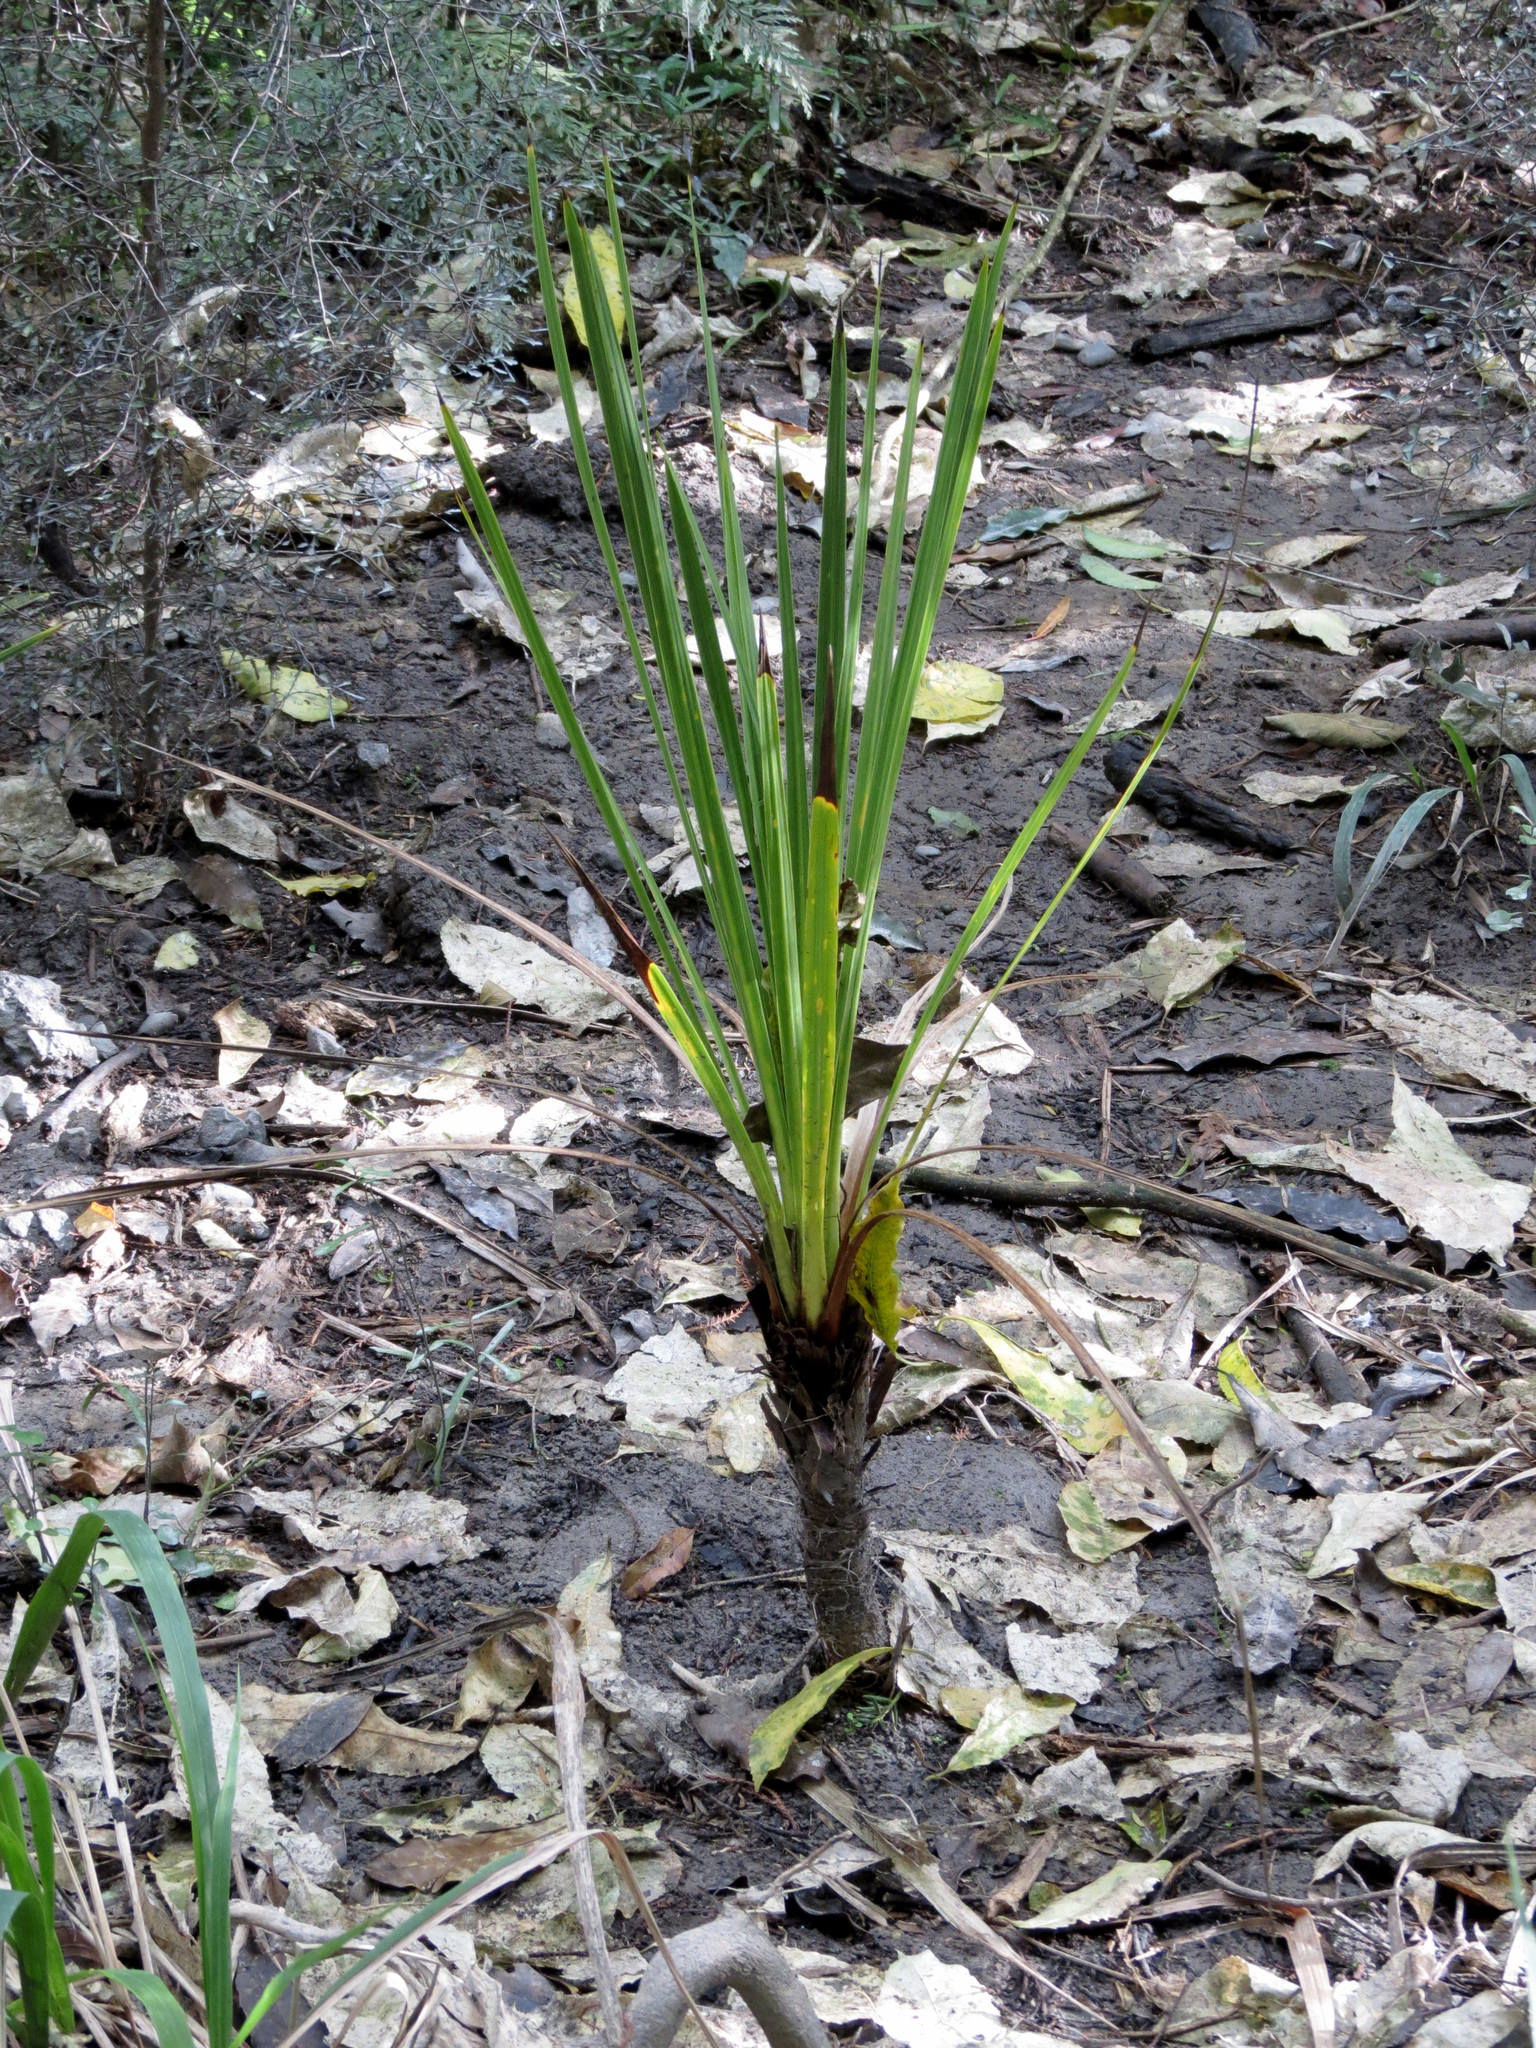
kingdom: Plantae
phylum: Tracheophyta
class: Liliopsida
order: Asparagales
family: Asparagaceae
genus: Cordyline
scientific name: Cordyline australis
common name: Cabbage-palm
